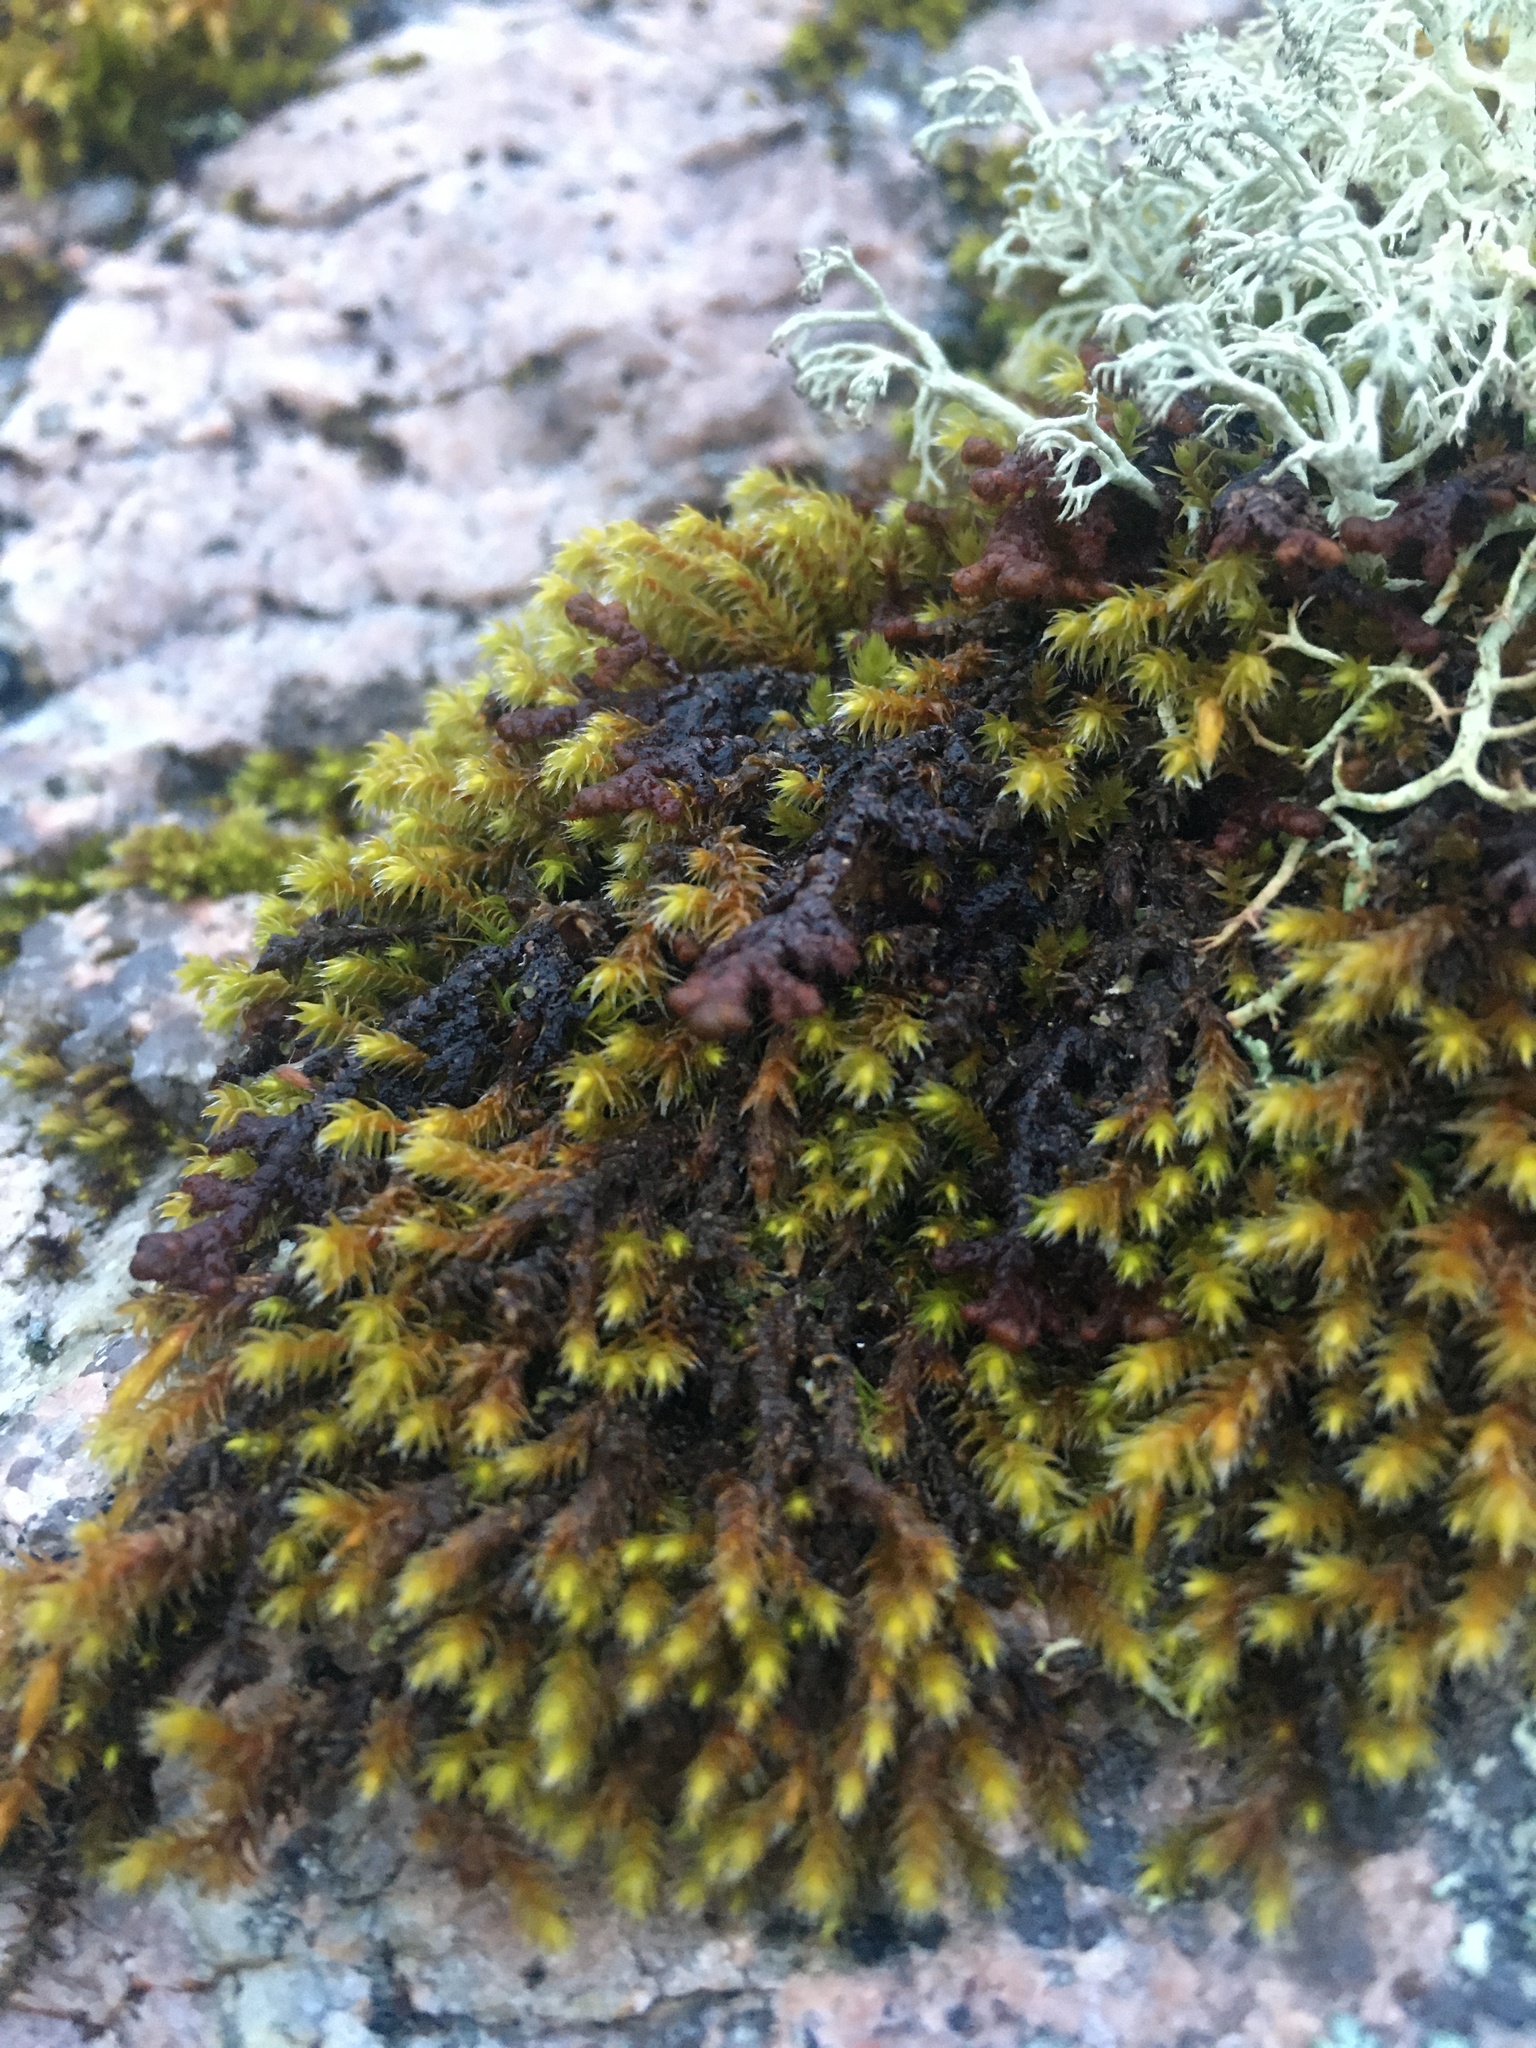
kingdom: Plantae
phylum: Bryophyta
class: Bryopsida
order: Hedwigiales
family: Hedwigiaceae
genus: Hedwigia
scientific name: Hedwigia ciliata
